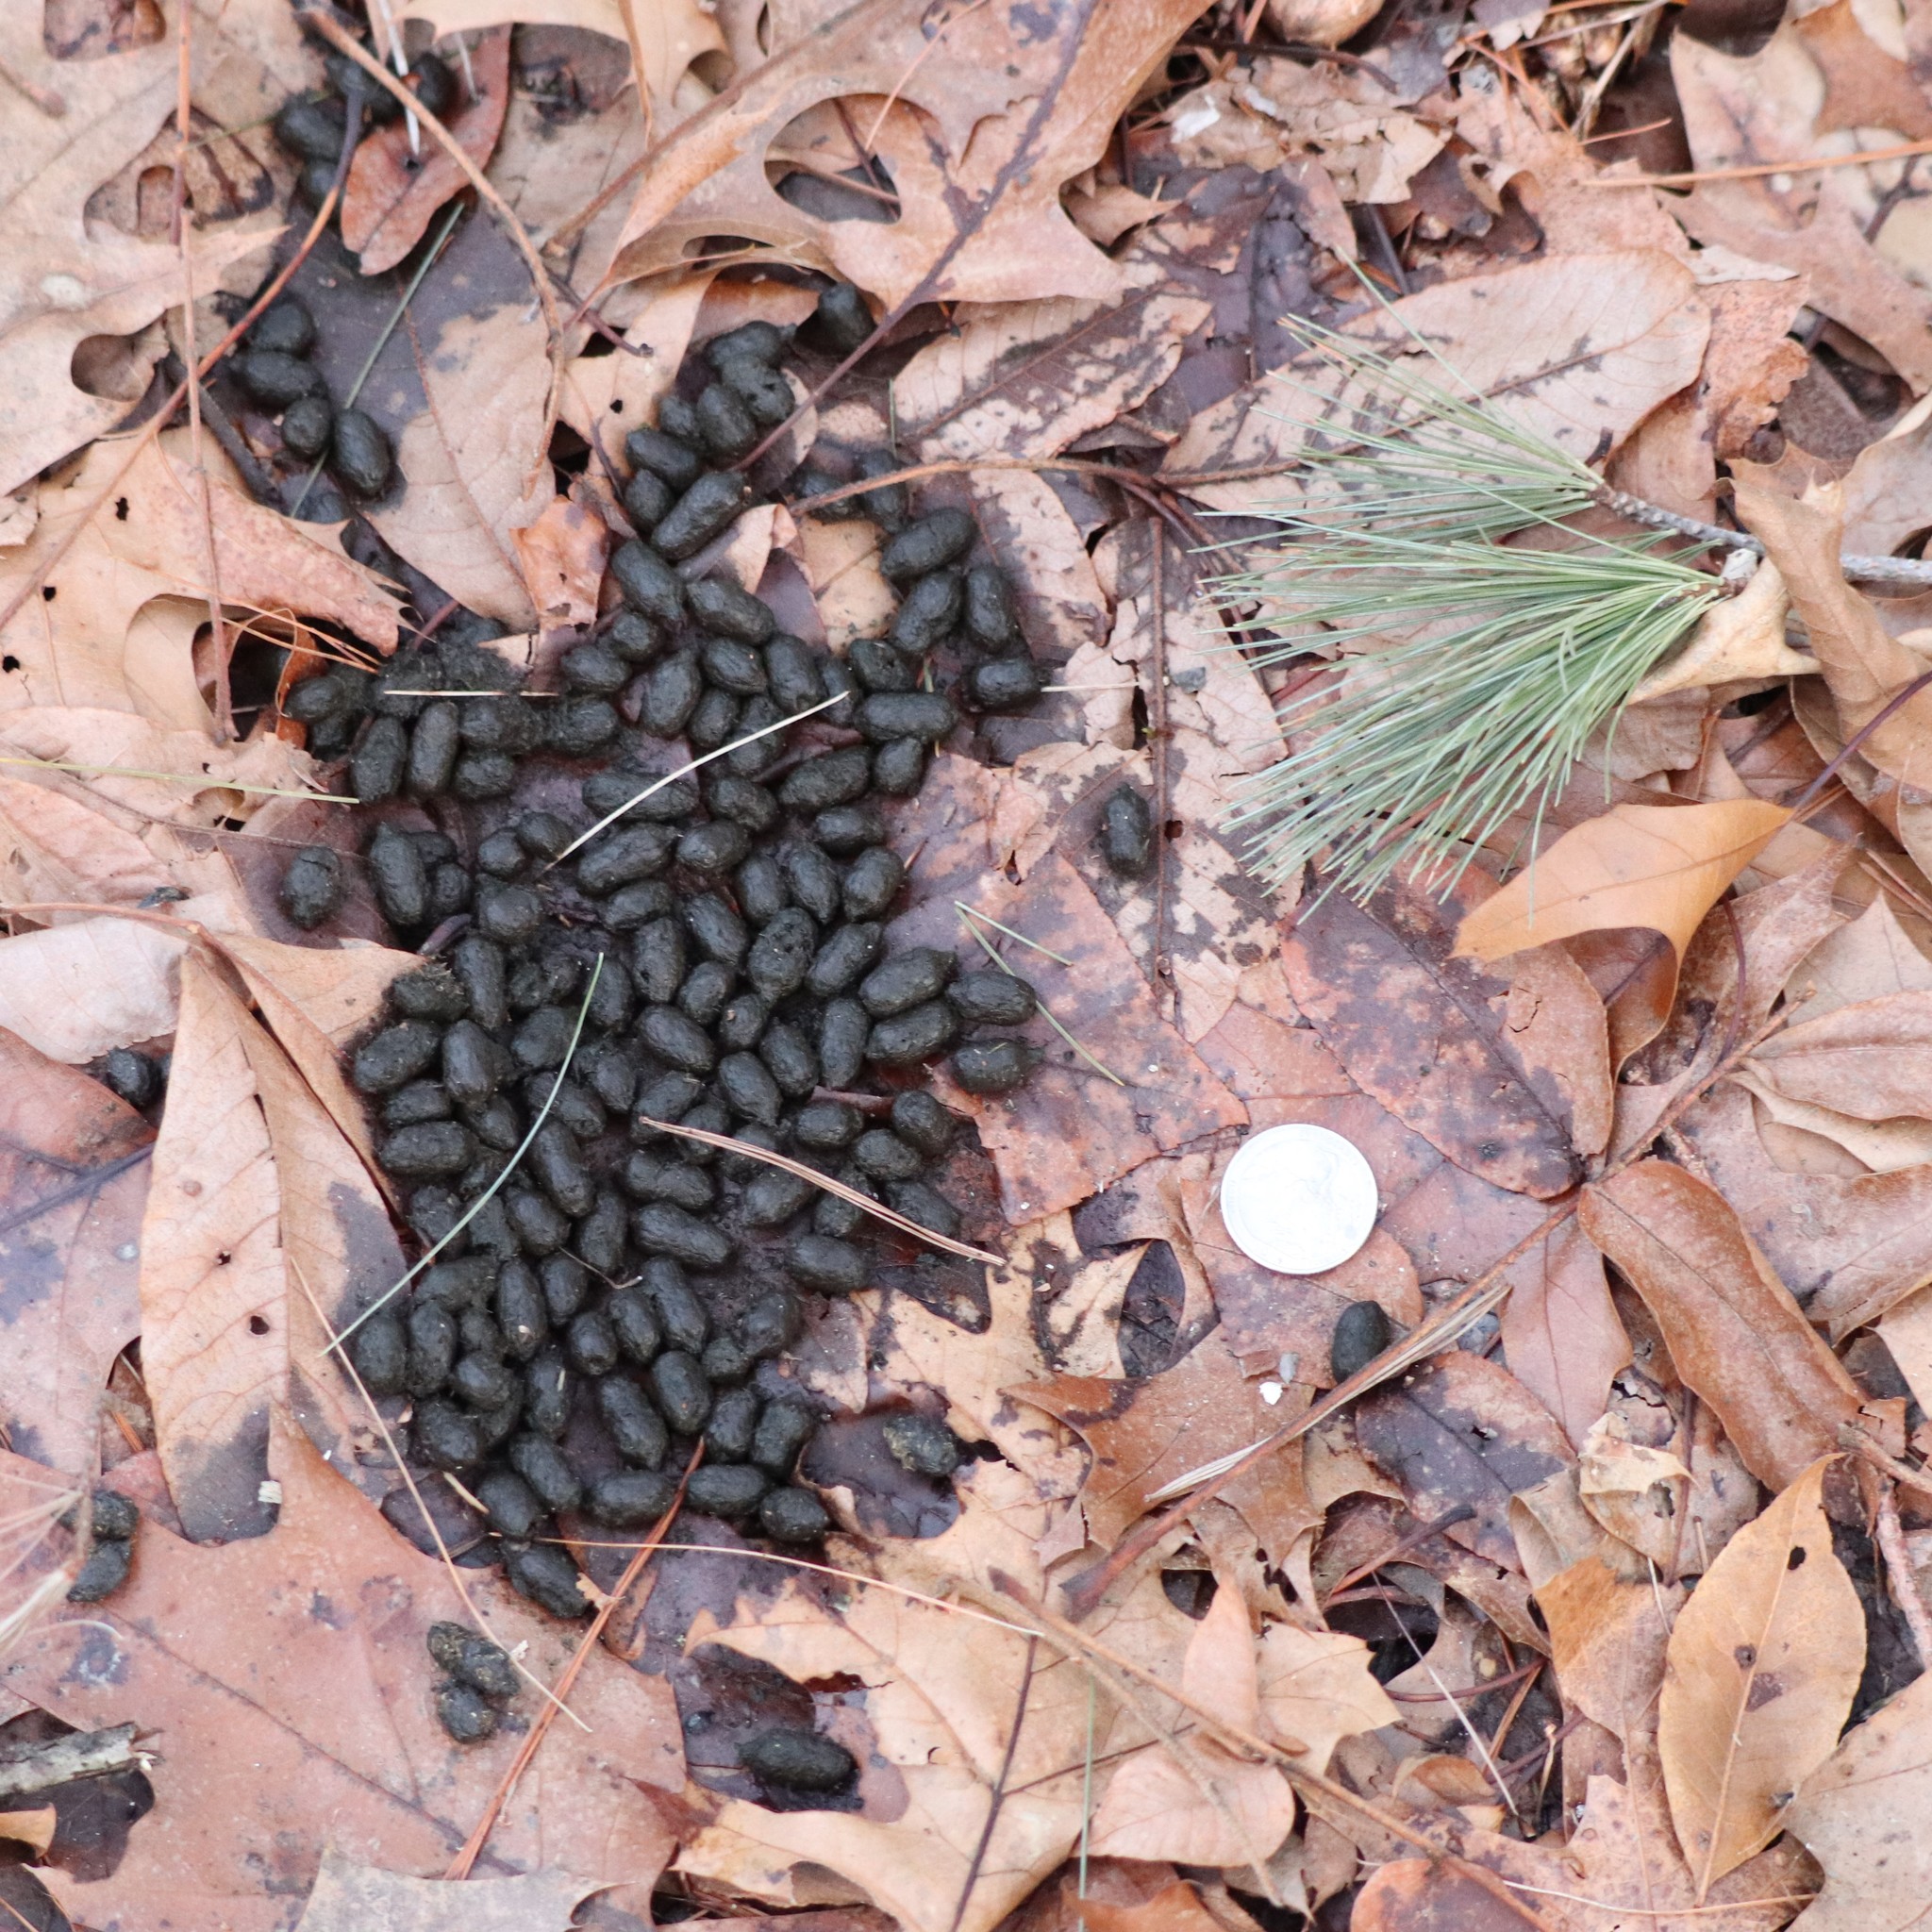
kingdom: Animalia
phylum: Chordata
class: Mammalia
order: Artiodactyla
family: Cervidae
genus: Odocoileus
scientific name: Odocoileus virginianus
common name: White-tailed deer
